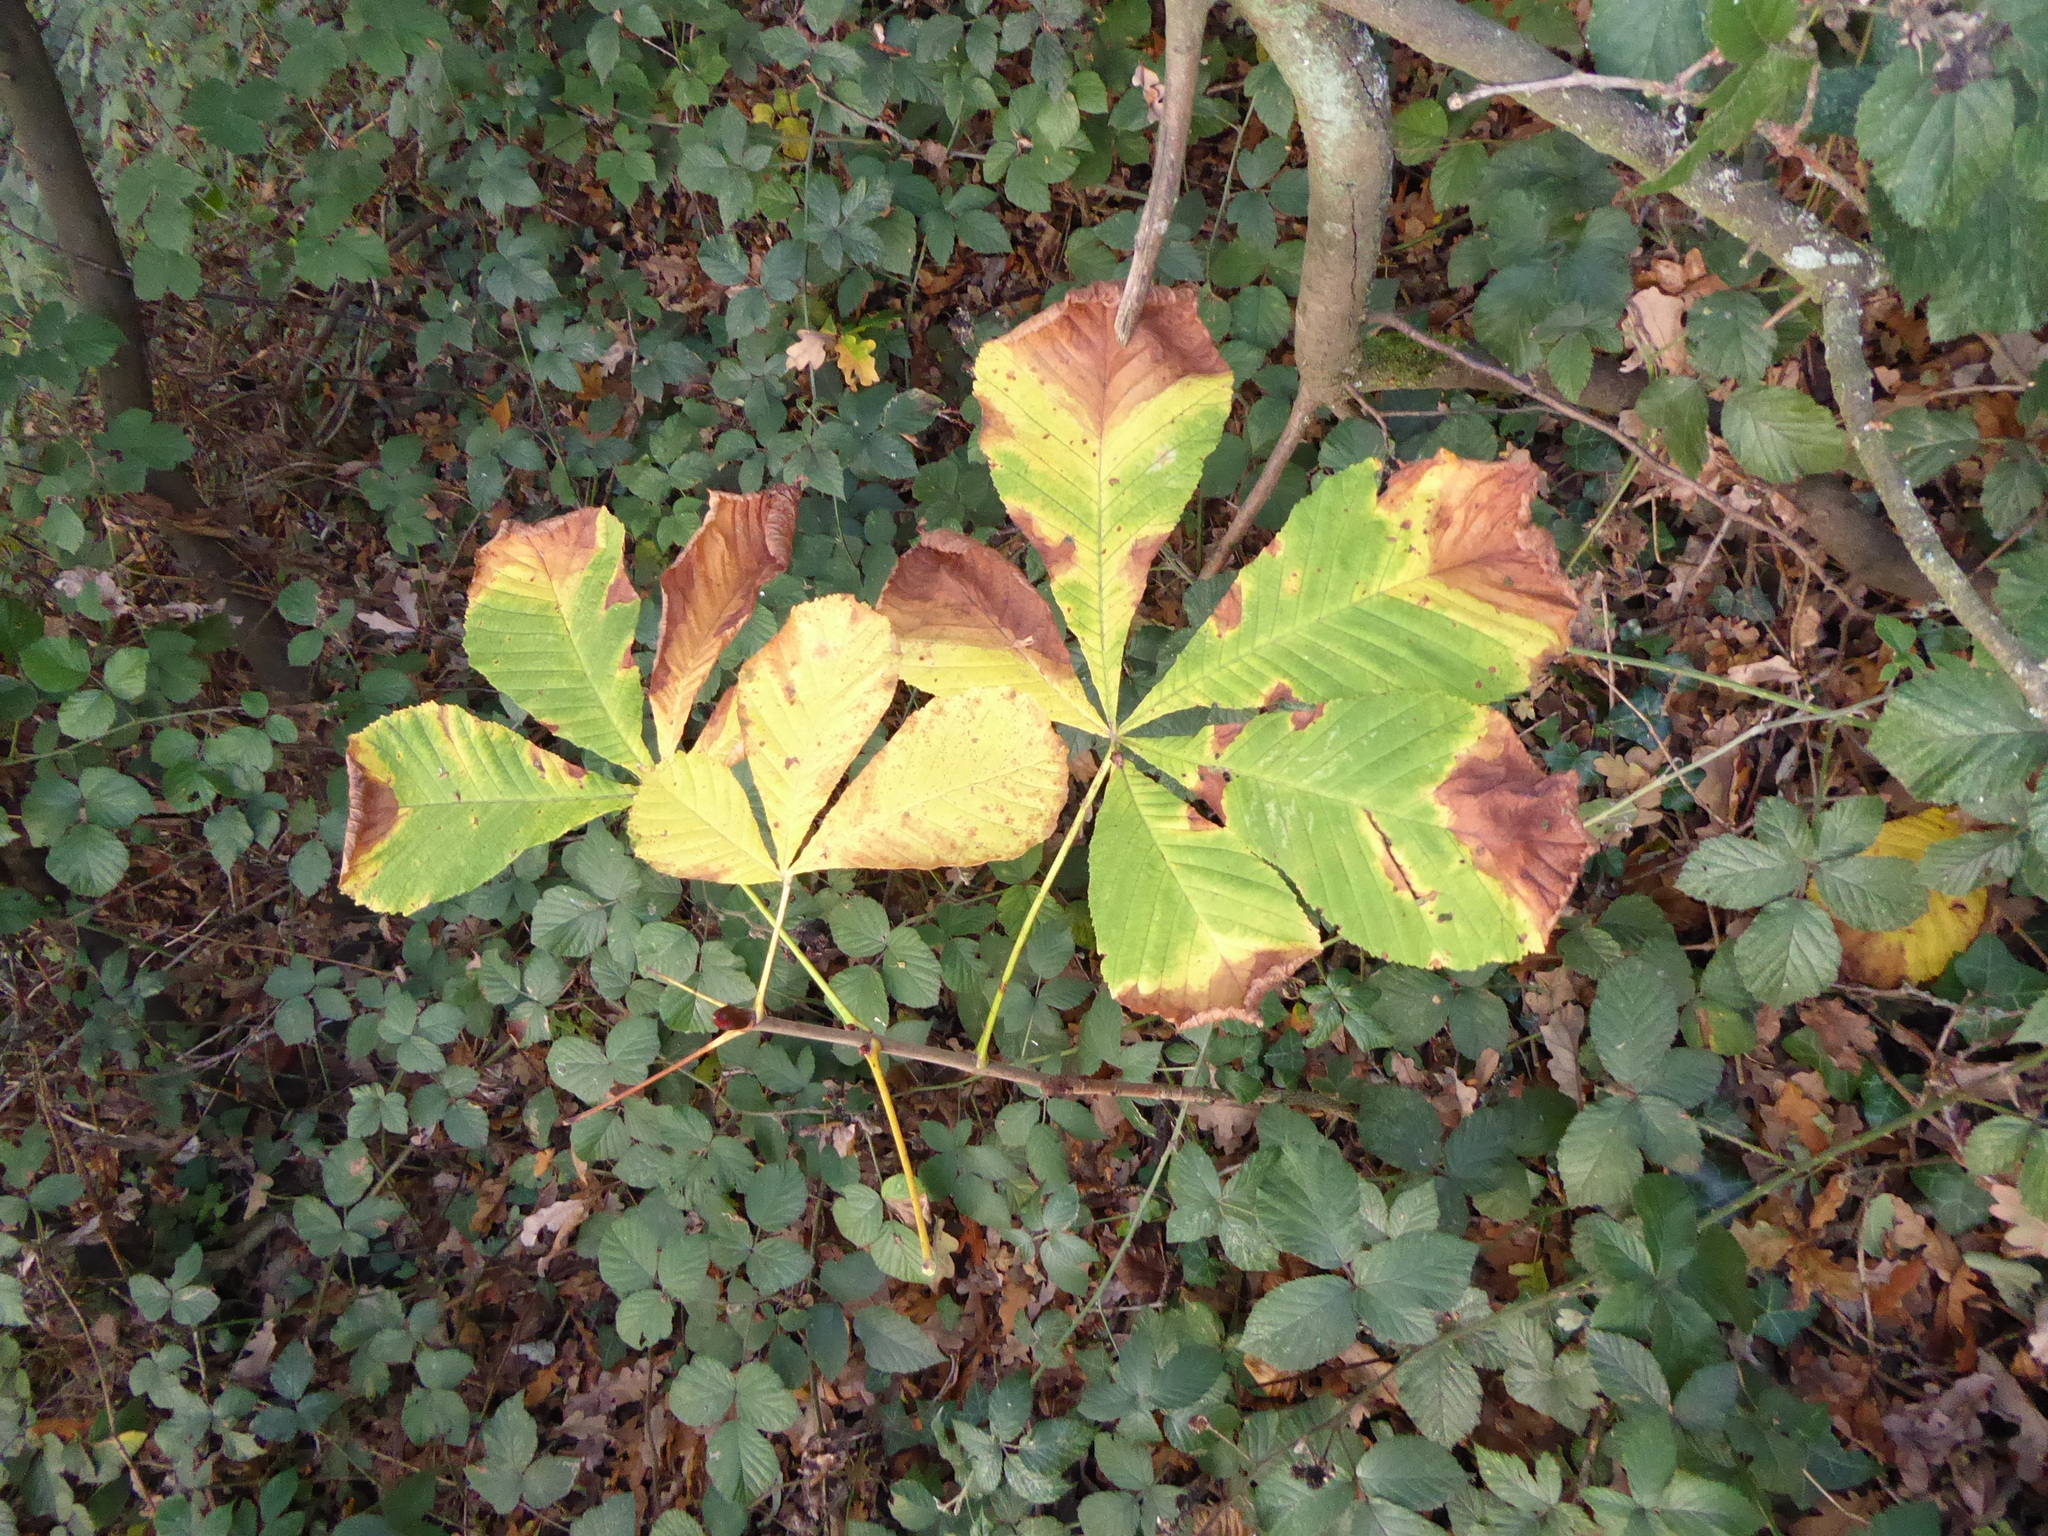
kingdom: Plantae
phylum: Tracheophyta
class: Magnoliopsida
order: Sapindales
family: Sapindaceae
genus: Aesculus
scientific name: Aesculus hippocastanum
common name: Horse-chestnut
